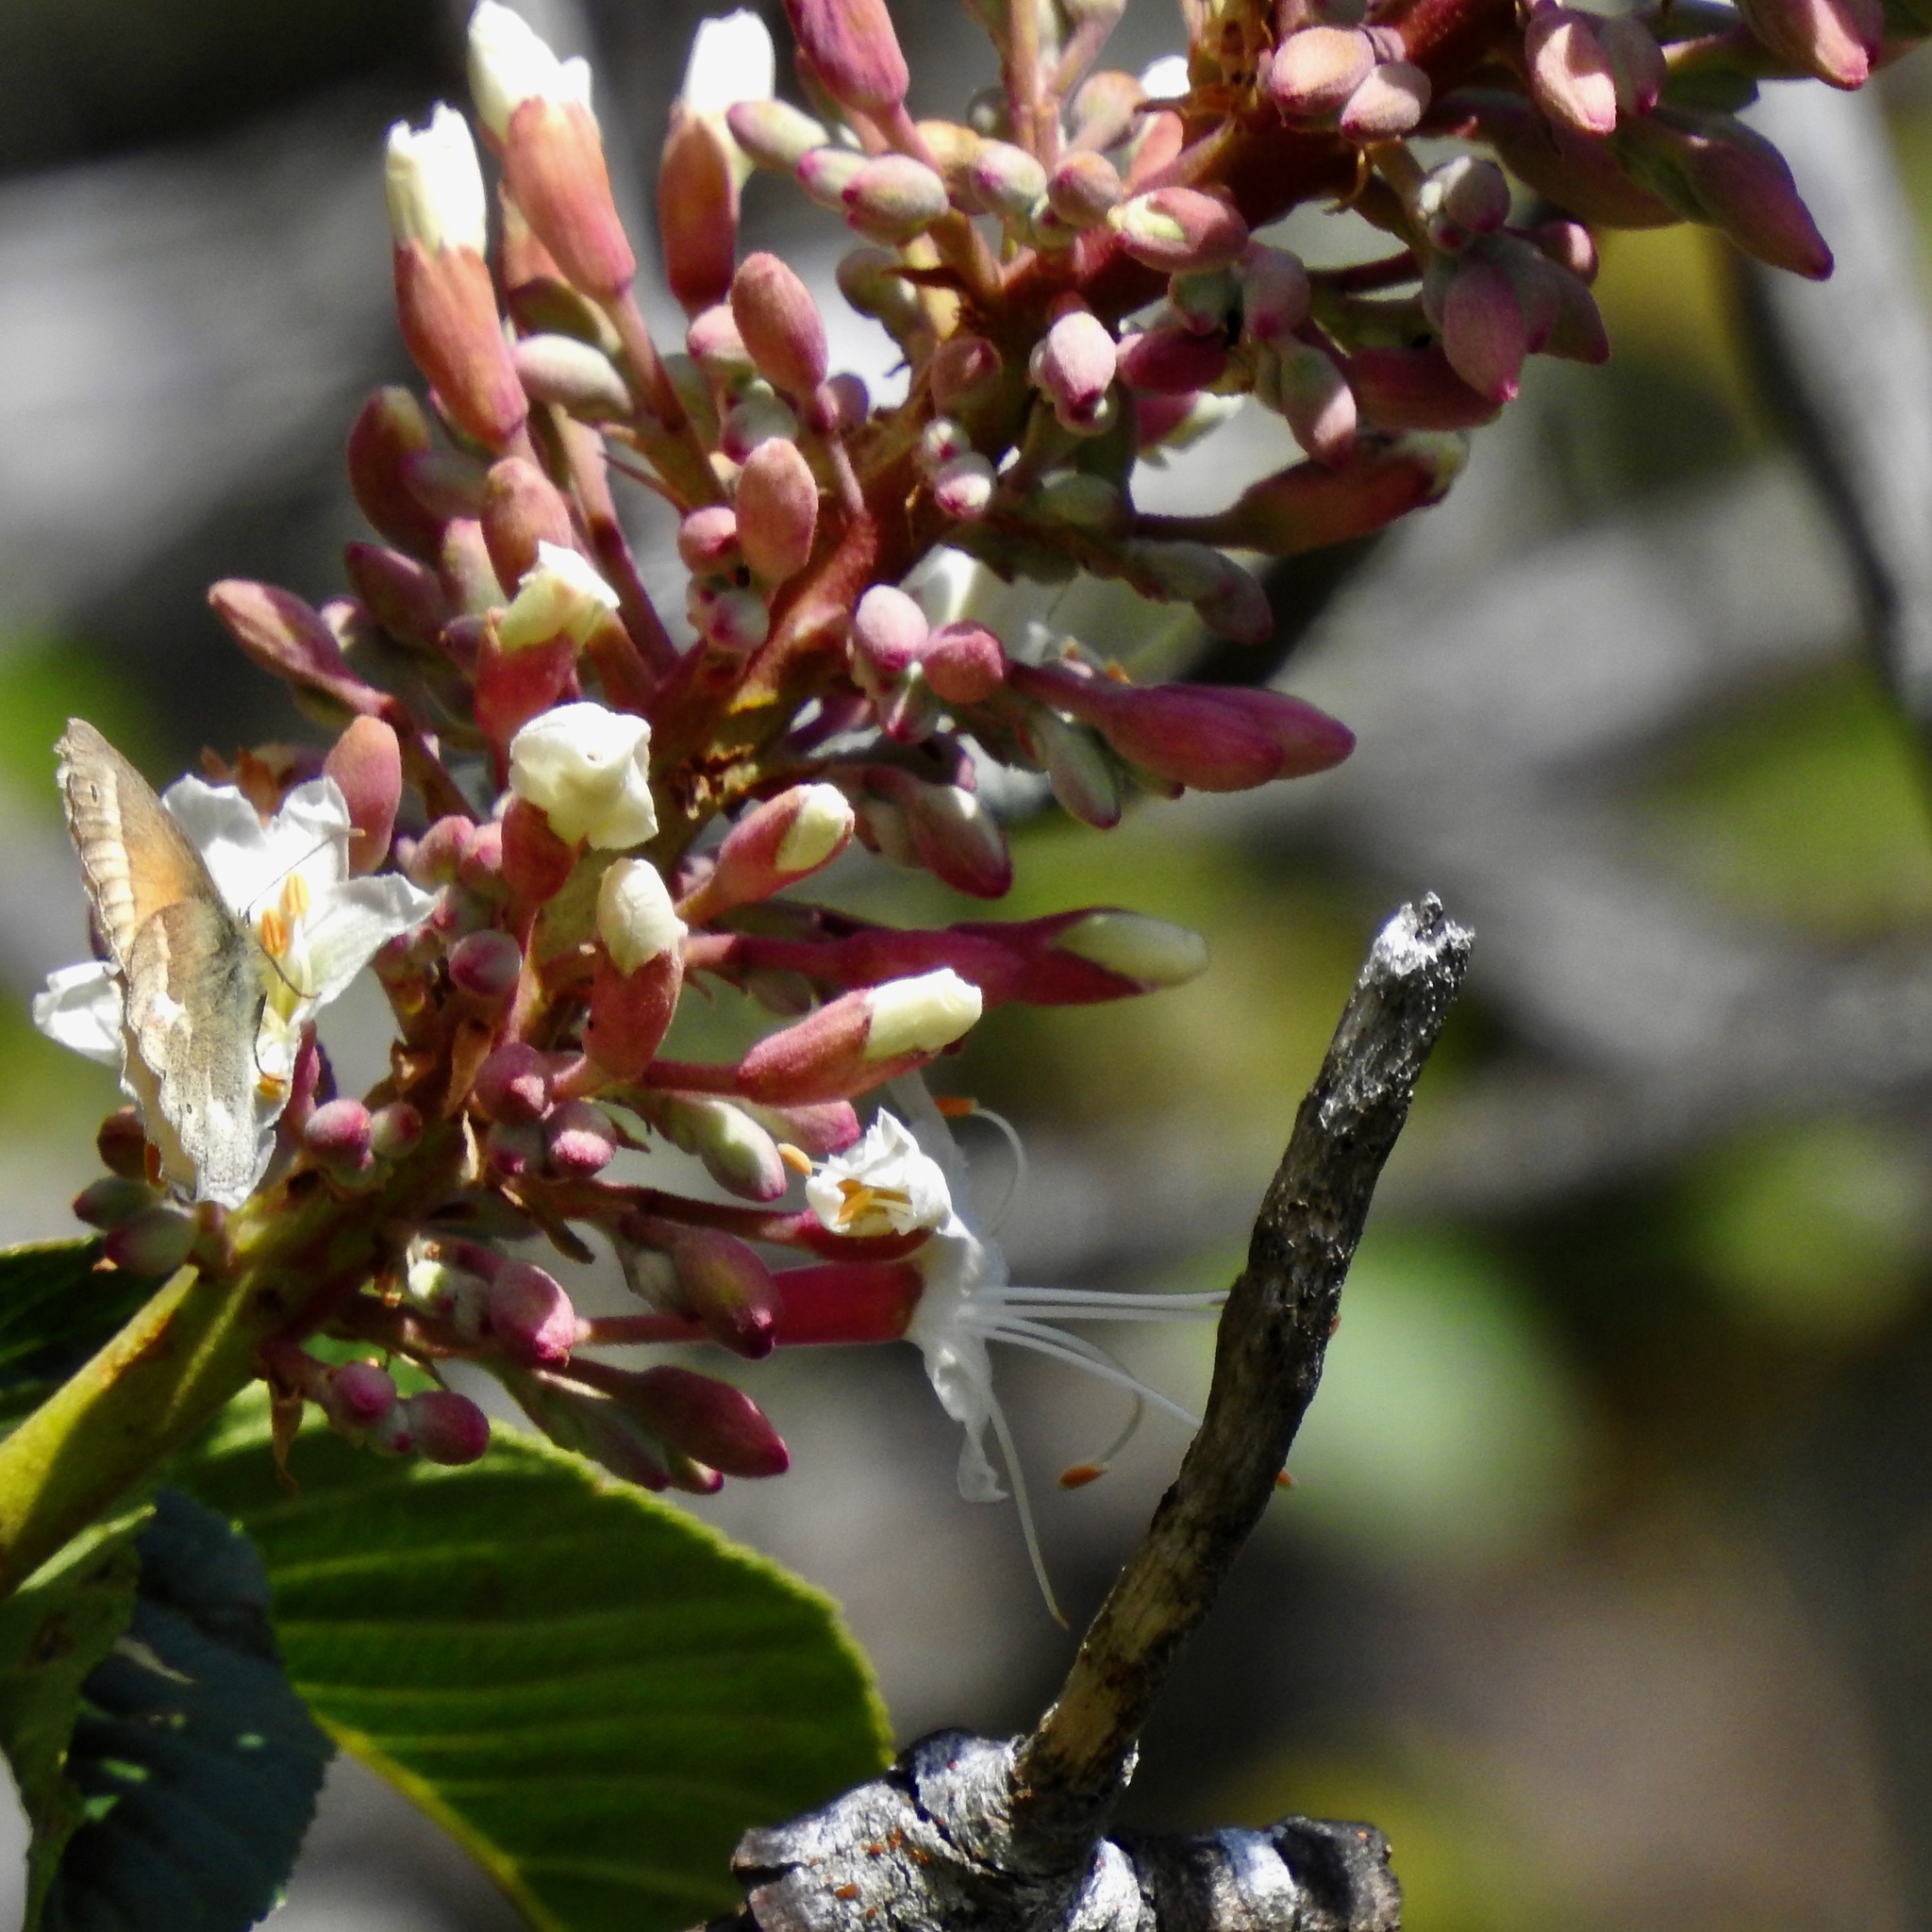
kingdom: Plantae
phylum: Tracheophyta
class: Magnoliopsida
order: Sapindales
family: Sapindaceae
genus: Aesculus
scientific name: Aesculus californica
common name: California buckeye
